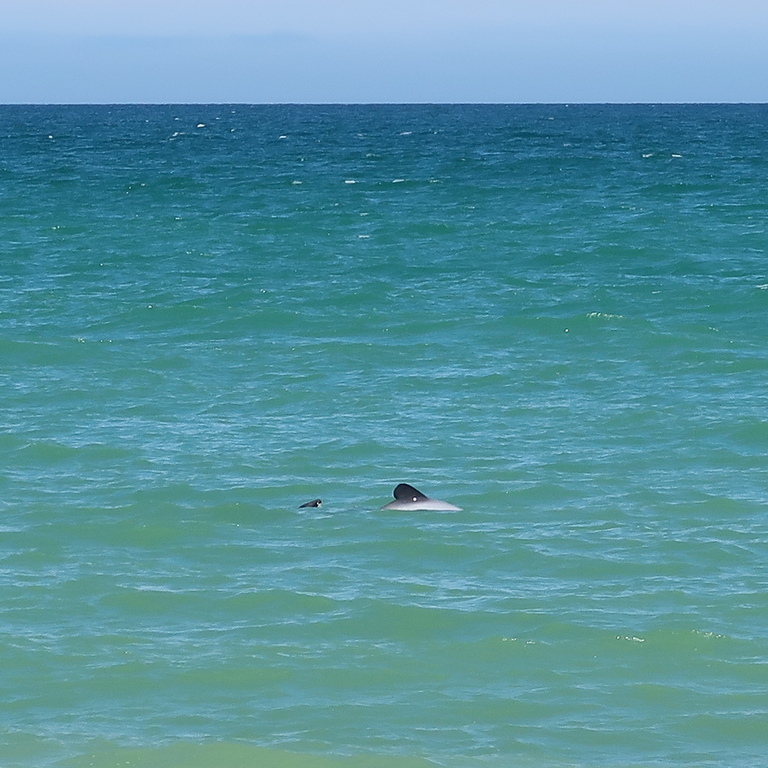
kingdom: Animalia
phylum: Chordata
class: Mammalia
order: Cetacea
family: Delphinidae
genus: Cephalorhynchus
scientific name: Cephalorhynchus hectori
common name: Hector's dolphin
